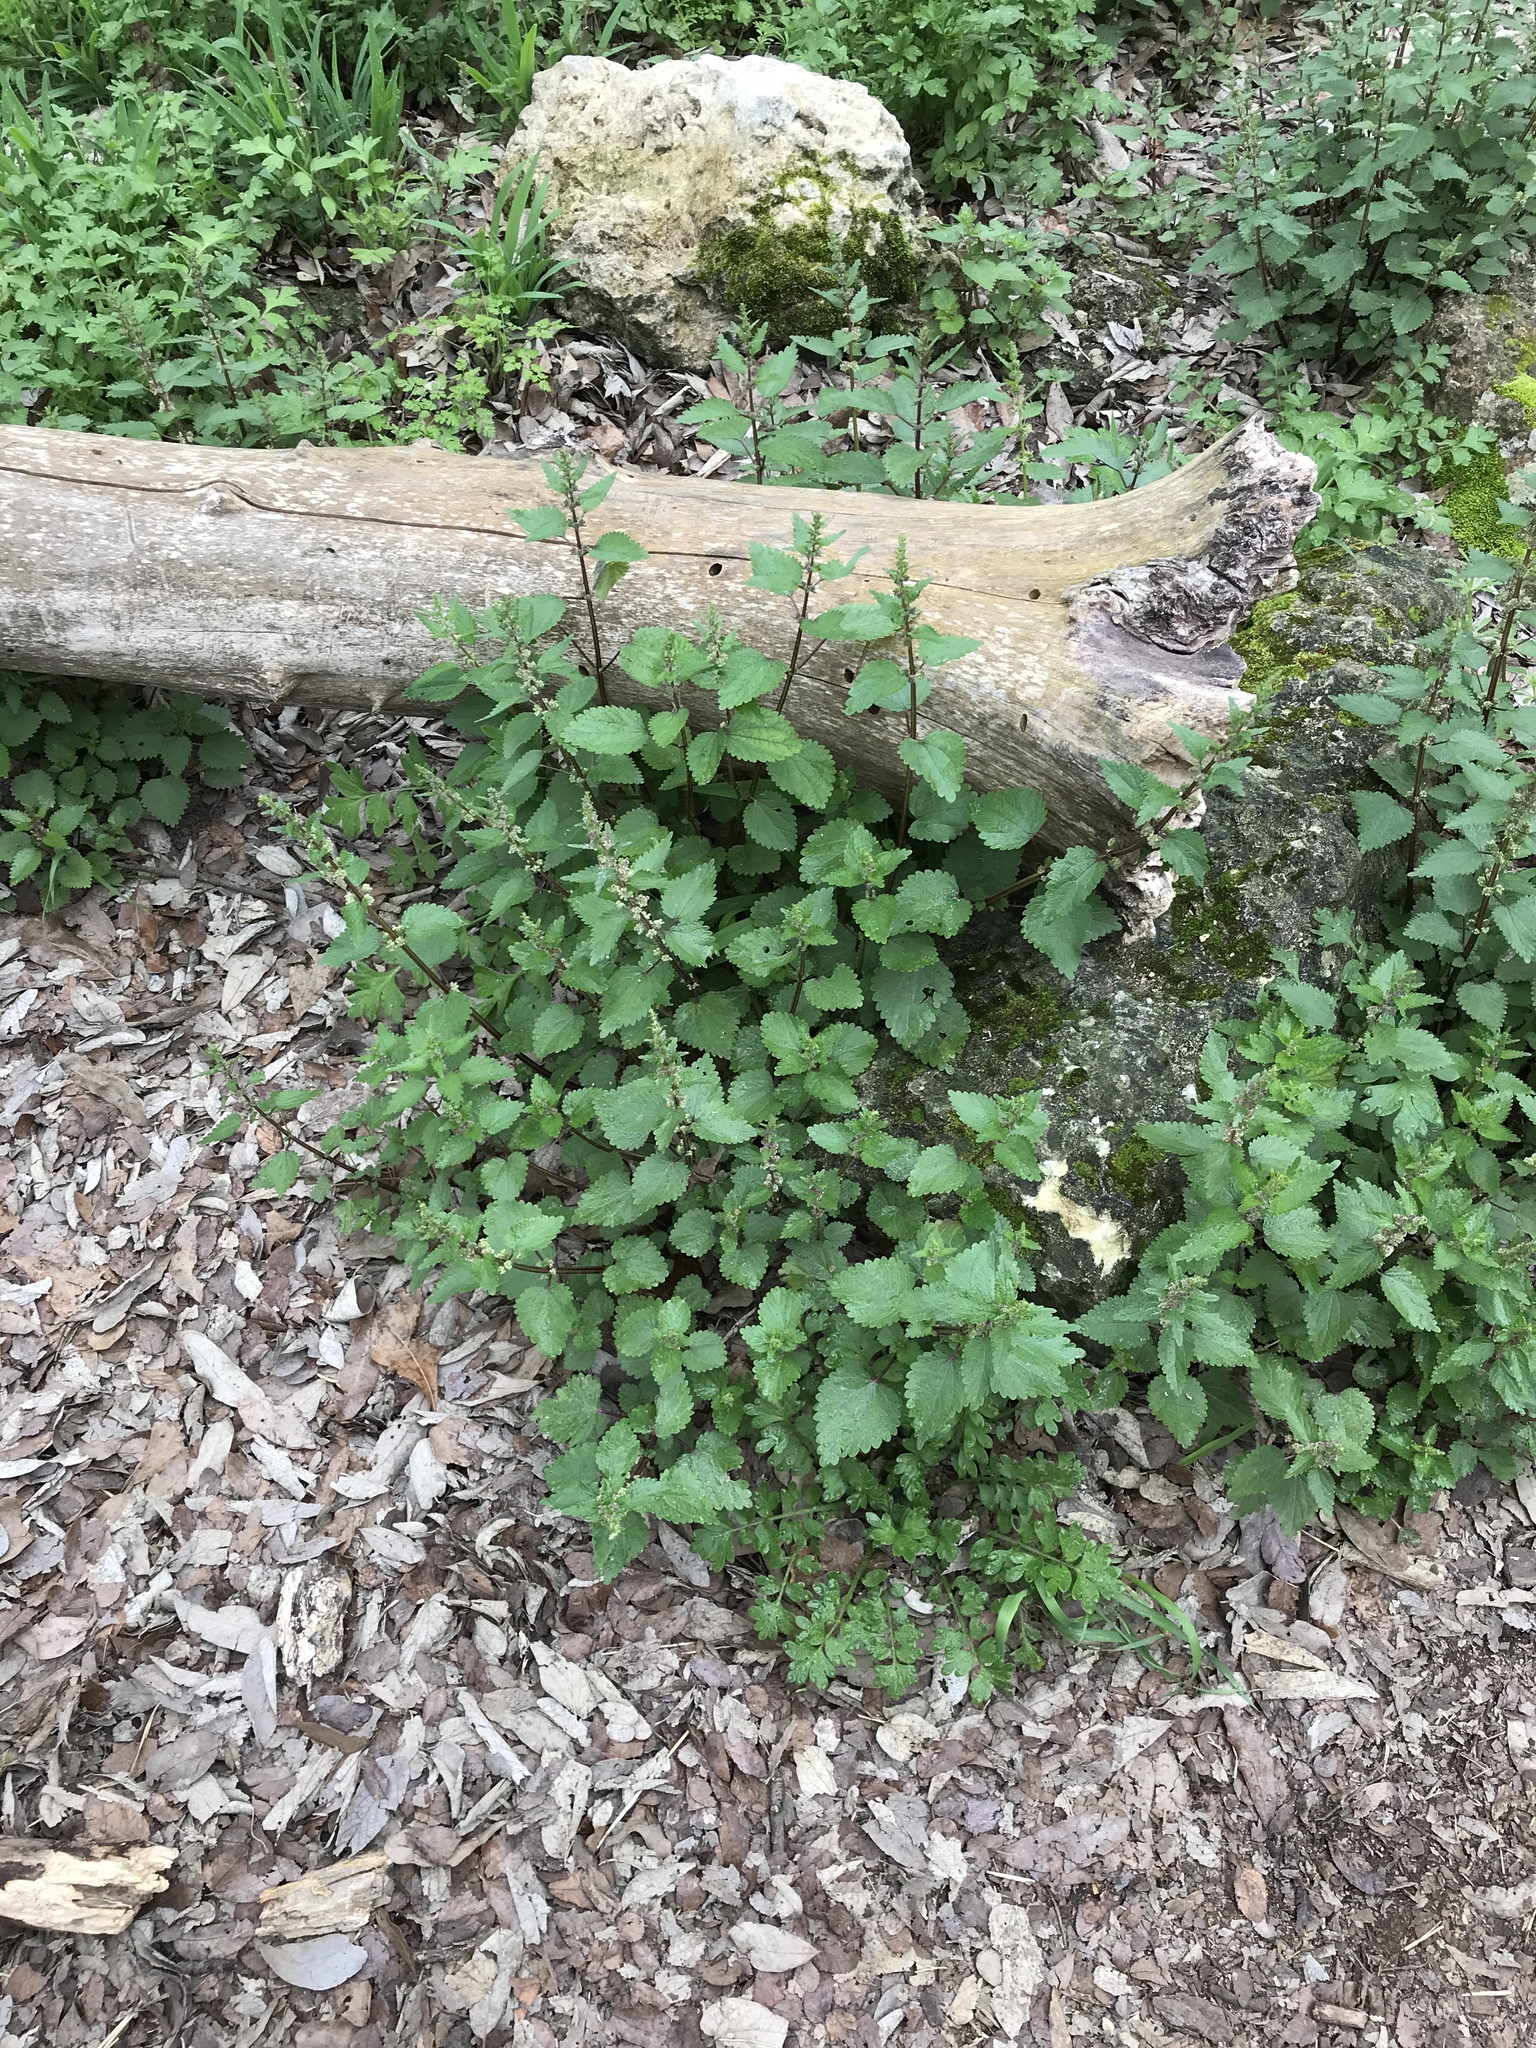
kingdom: Plantae
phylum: Tracheophyta
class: Magnoliopsida
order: Rosales
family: Urticaceae
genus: Urtica
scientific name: Urtica chamaedryoides
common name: Heart-leaf nettle
